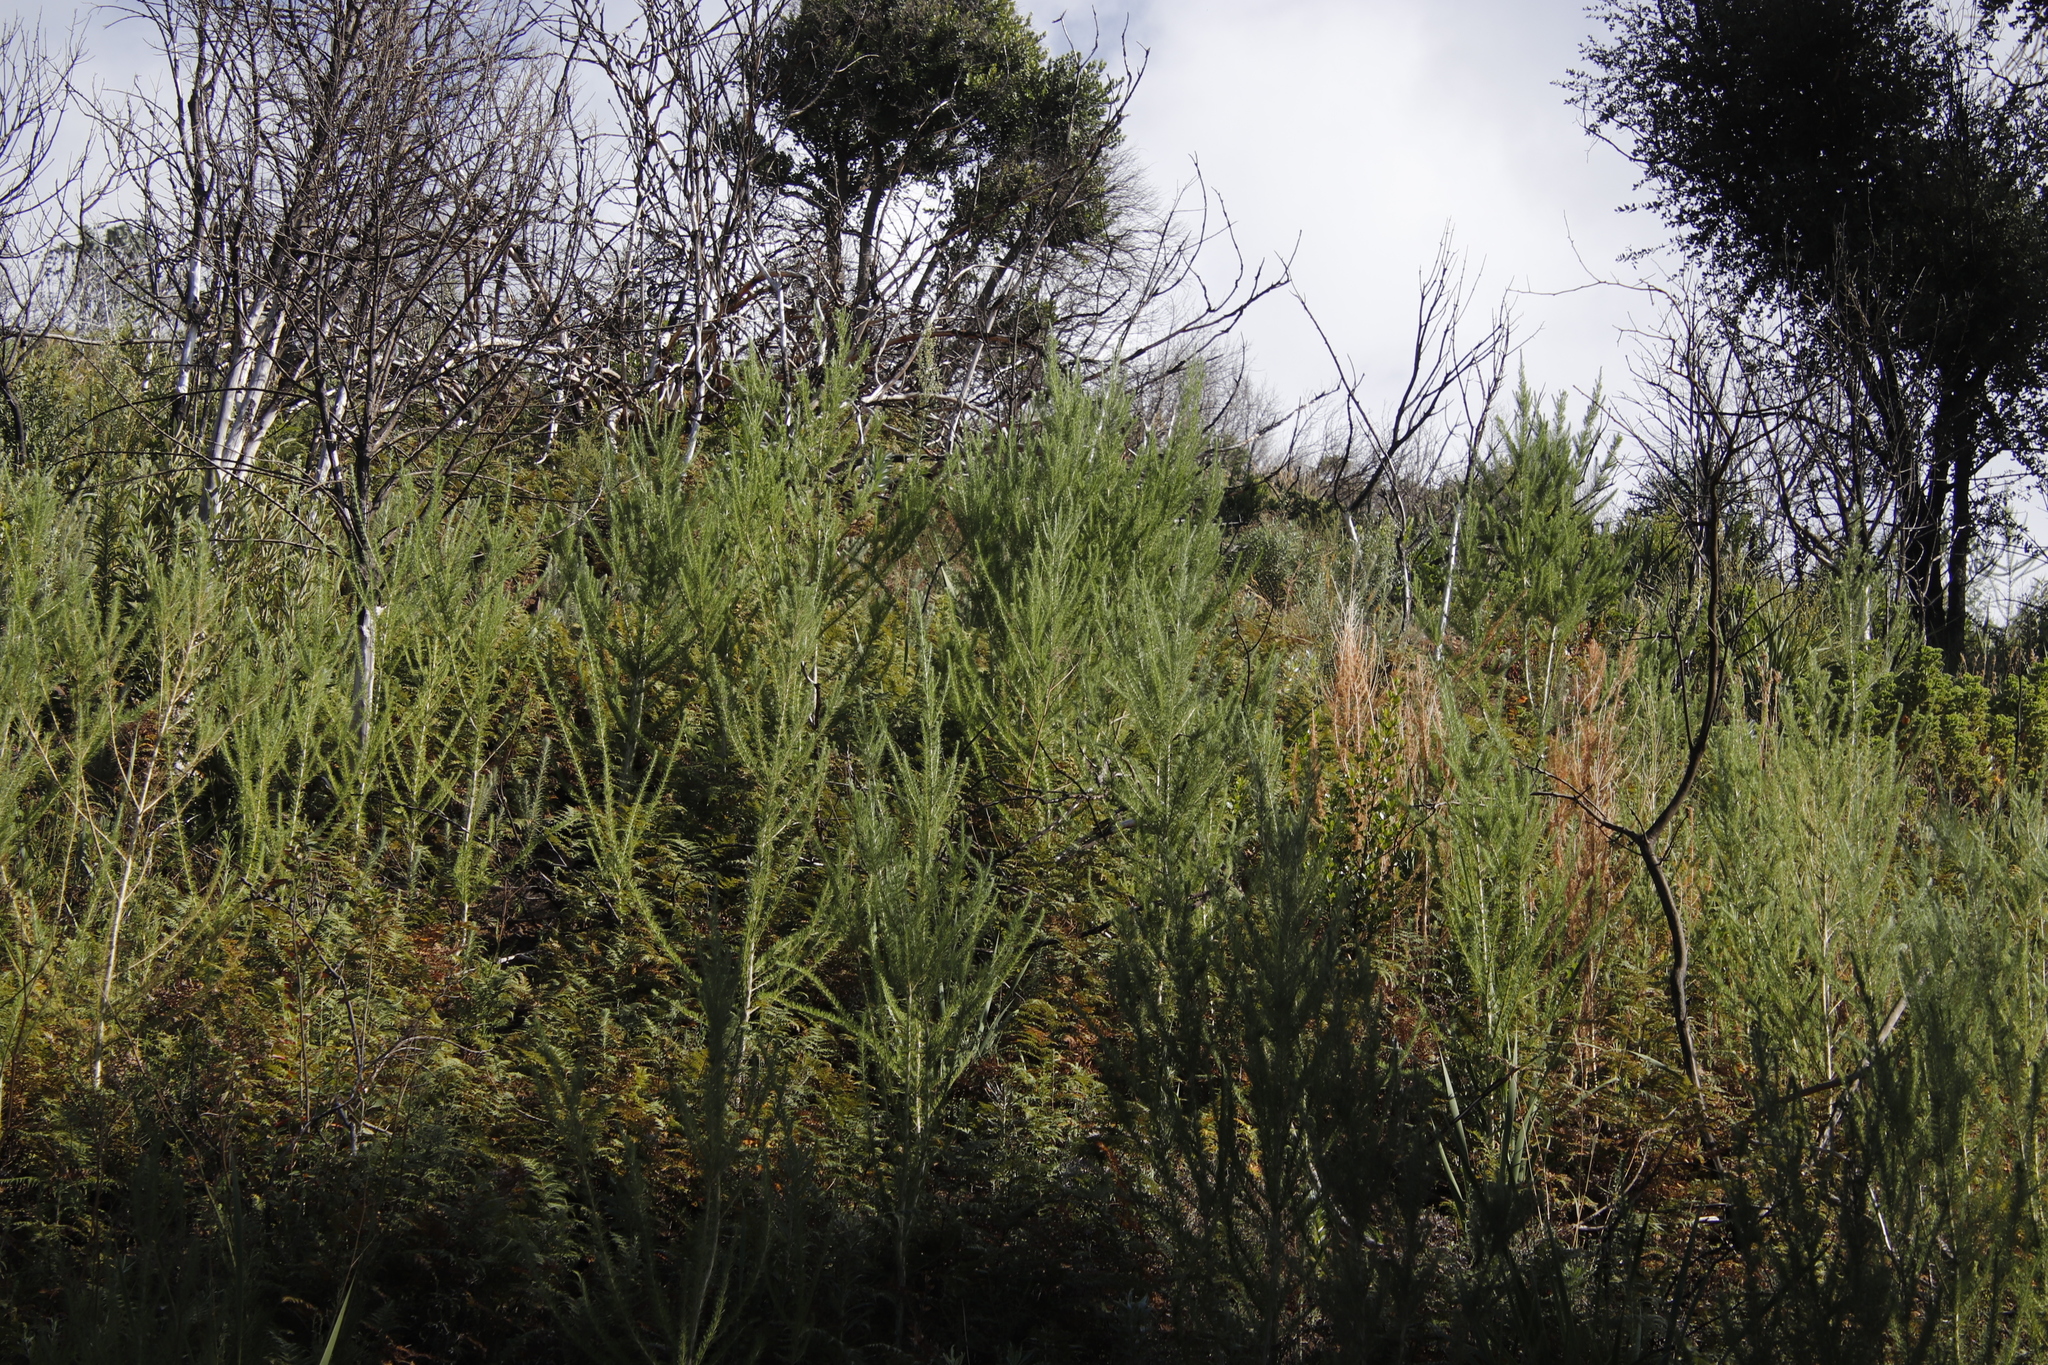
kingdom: Plantae
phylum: Tracheophyta
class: Magnoliopsida
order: Fabales
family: Fabaceae
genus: Aspalathus
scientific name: Aspalathus macrantha
